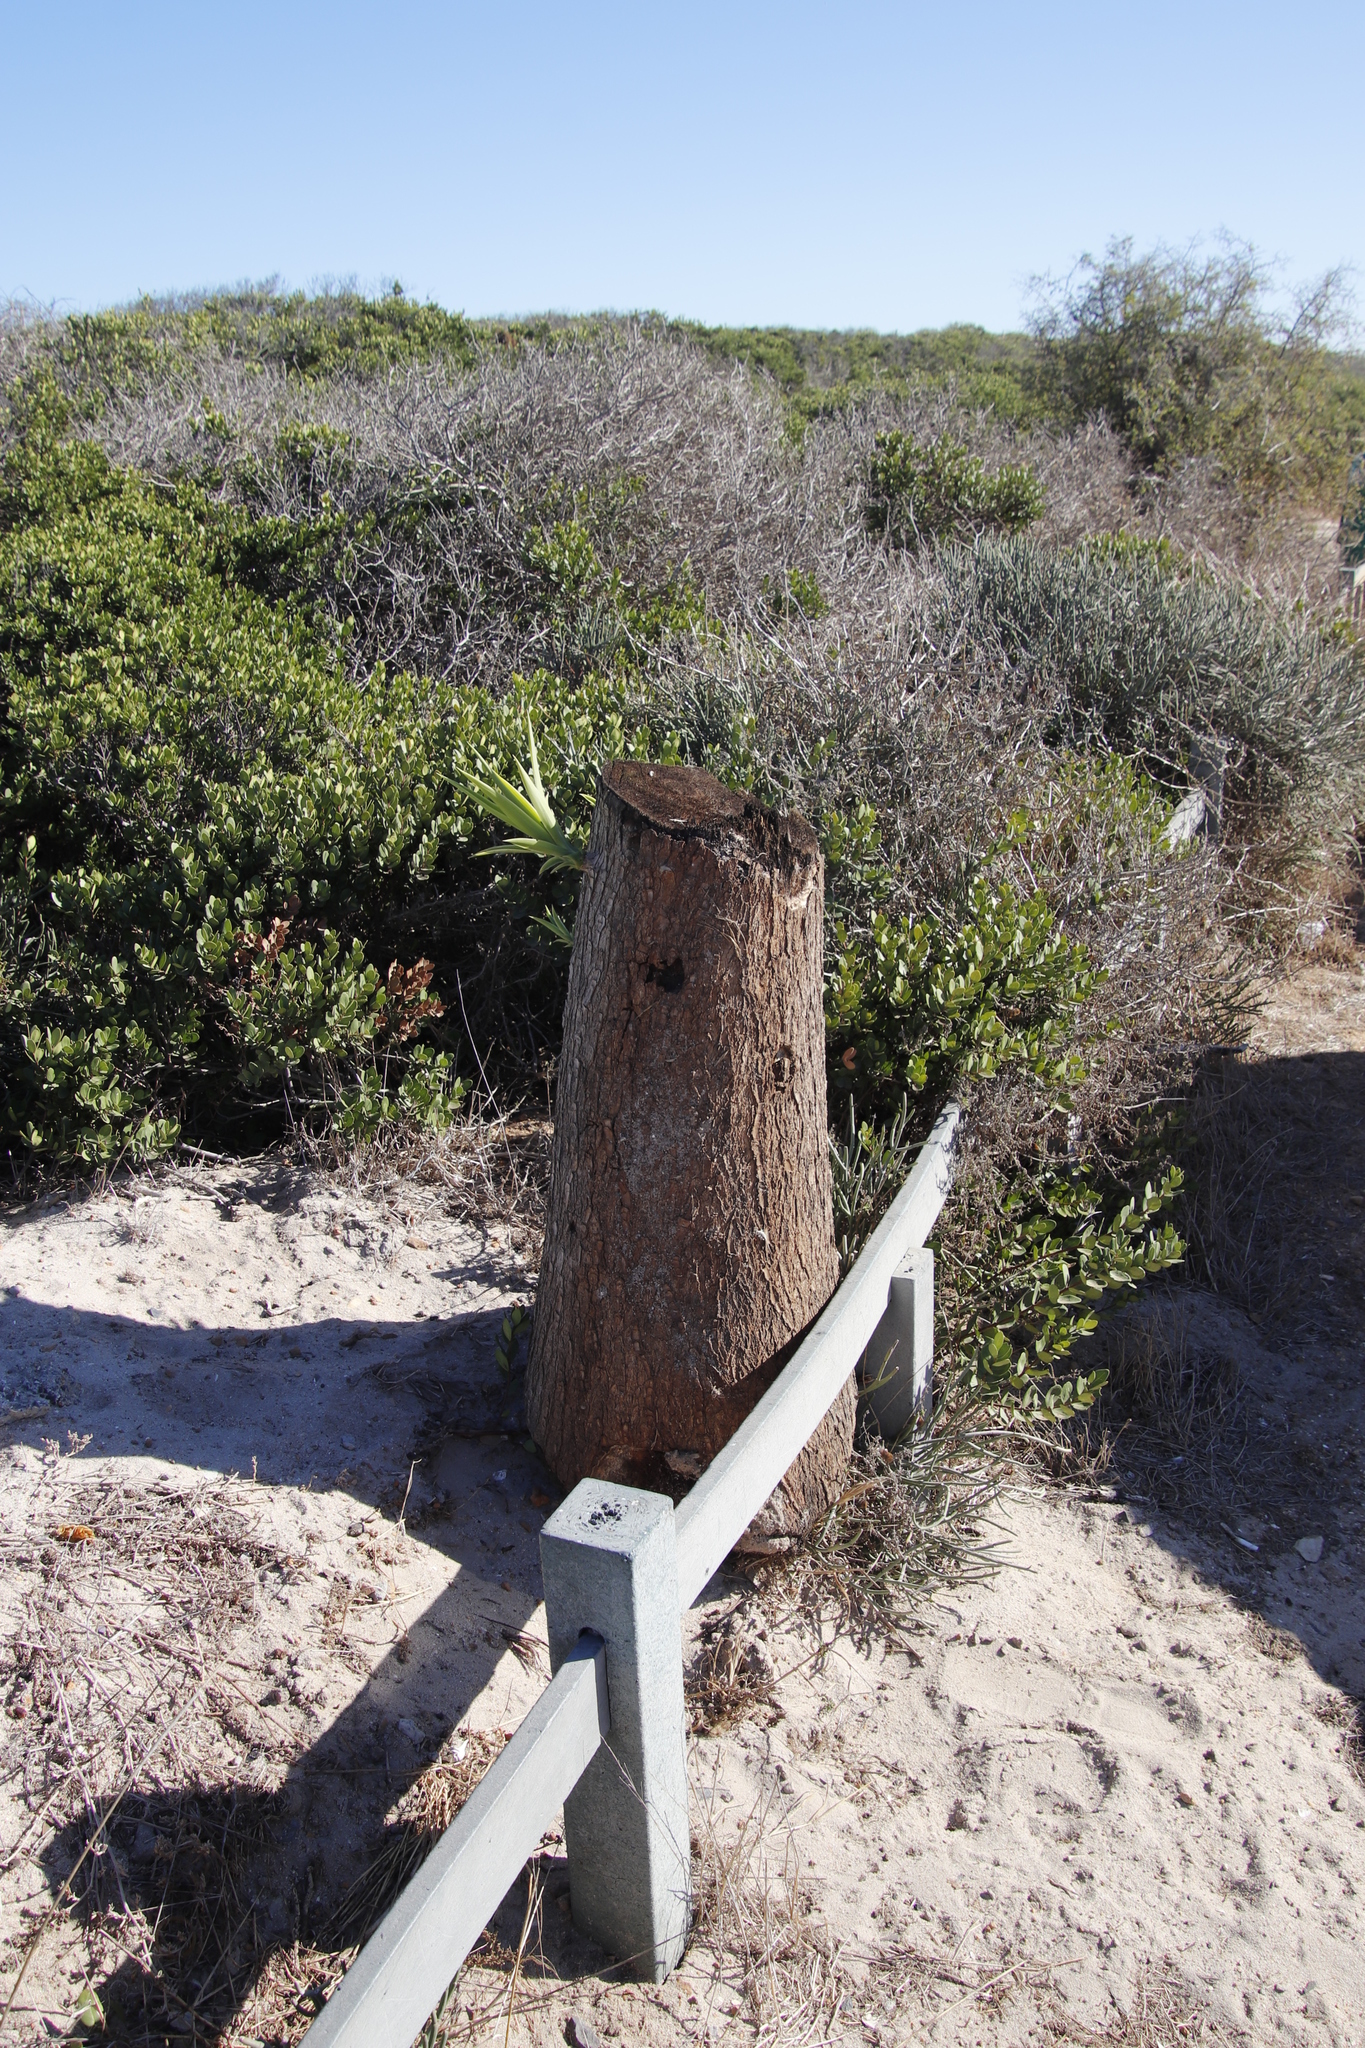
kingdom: Plantae
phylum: Tracheophyta
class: Liliopsida
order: Asparagales
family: Asparagaceae
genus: Yucca
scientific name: Yucca gigantea
